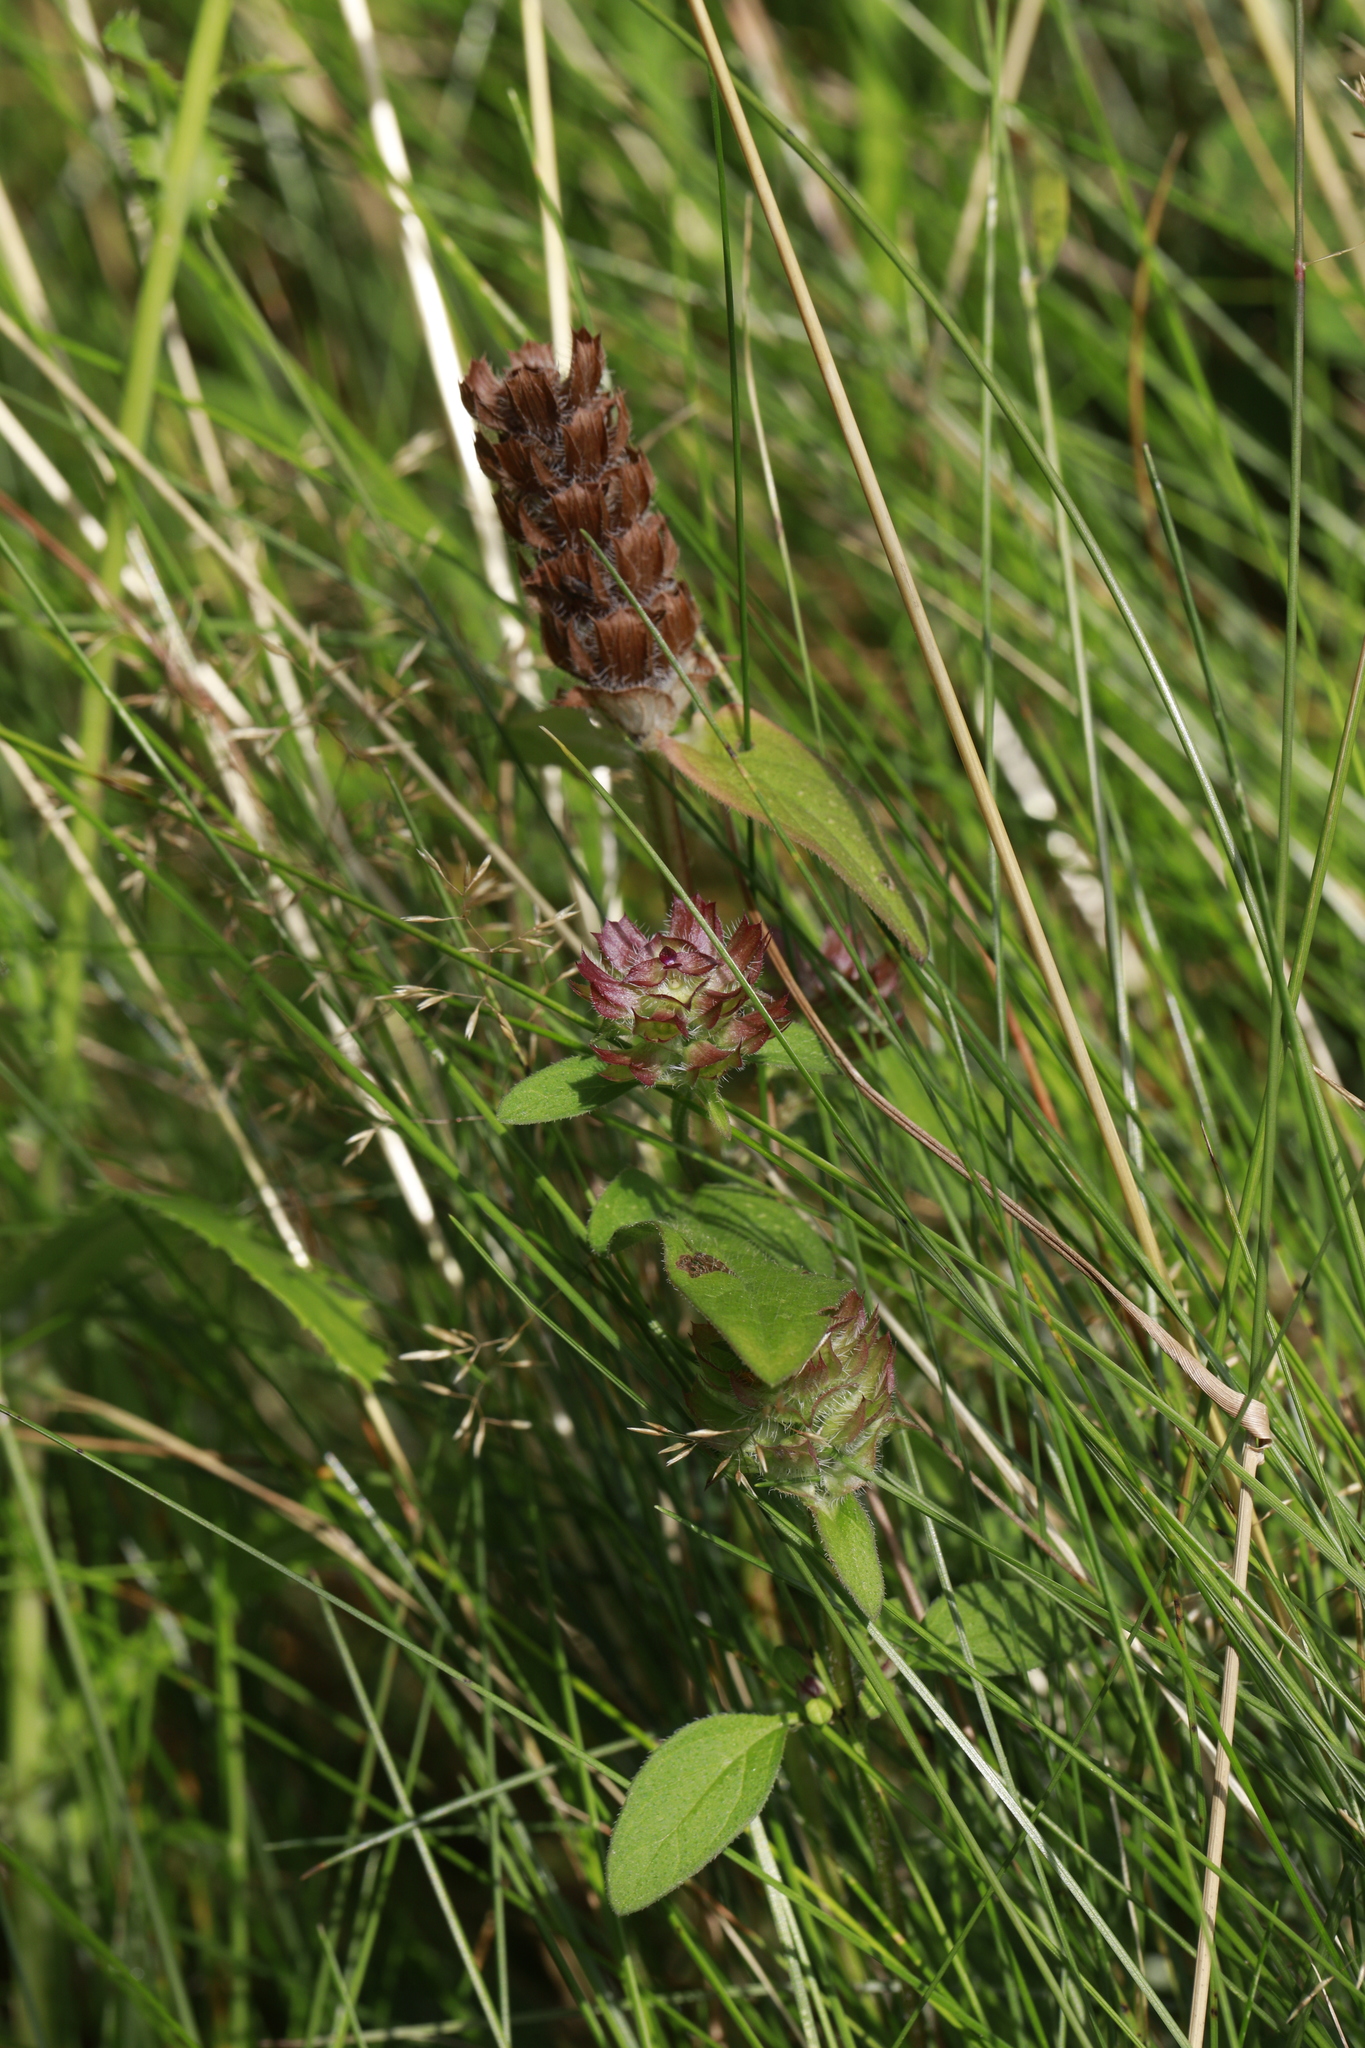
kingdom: Plantae
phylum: Tracheophyta
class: Magnoliopsida
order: Lamiales
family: Lamiaceae
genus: Prunella
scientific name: Prunella vulgaris
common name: Heal-all
